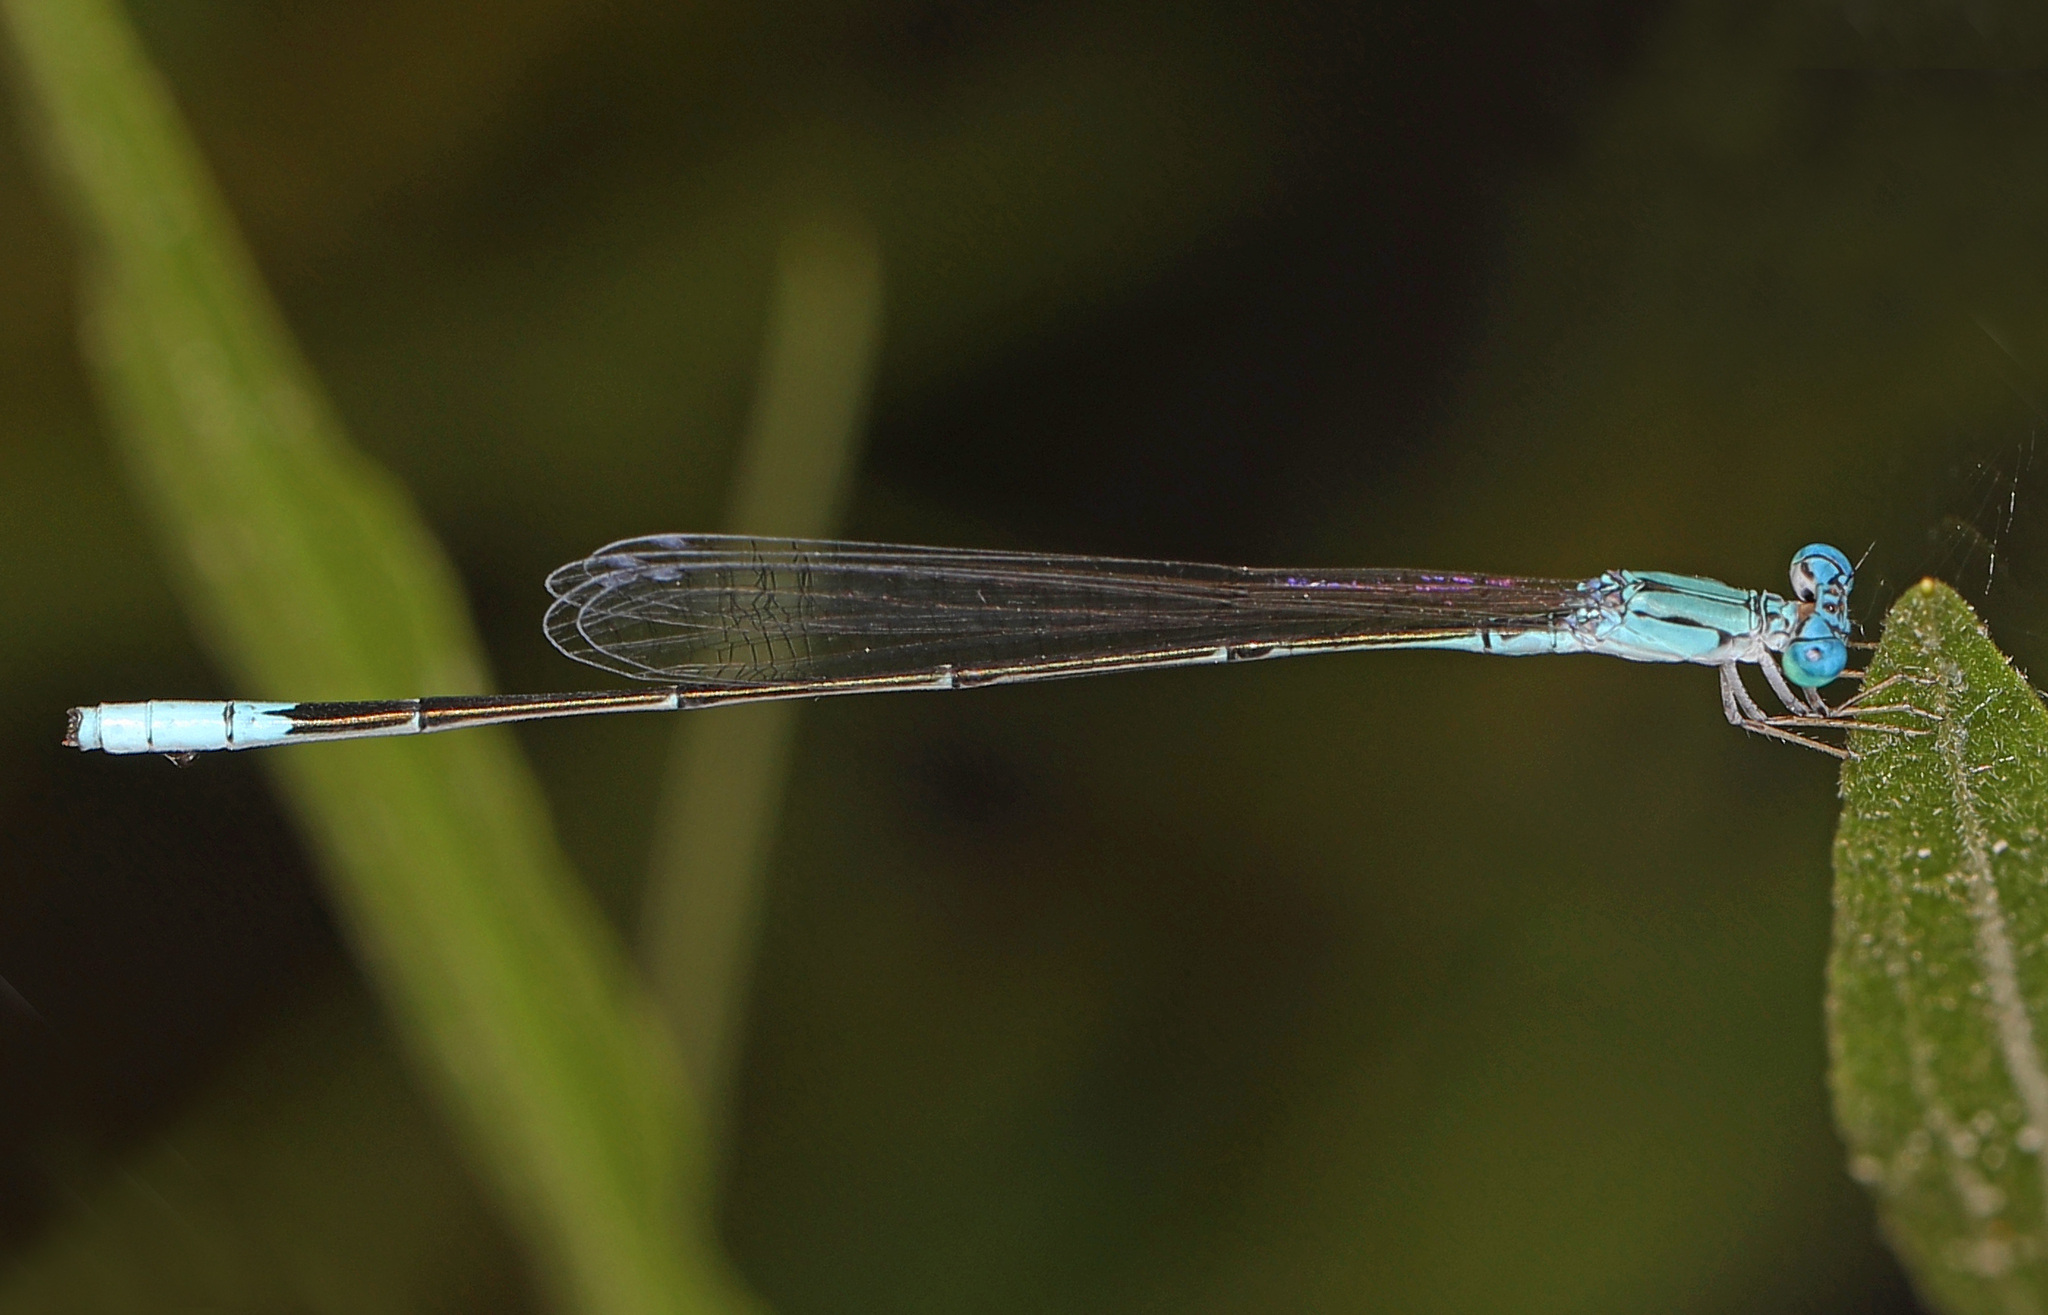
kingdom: Animalia
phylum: Arthropoda
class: Insecta
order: Odonata
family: Coenagrionidae
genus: Enallagma
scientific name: Enallagma daeckii
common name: Attenuated bluet
